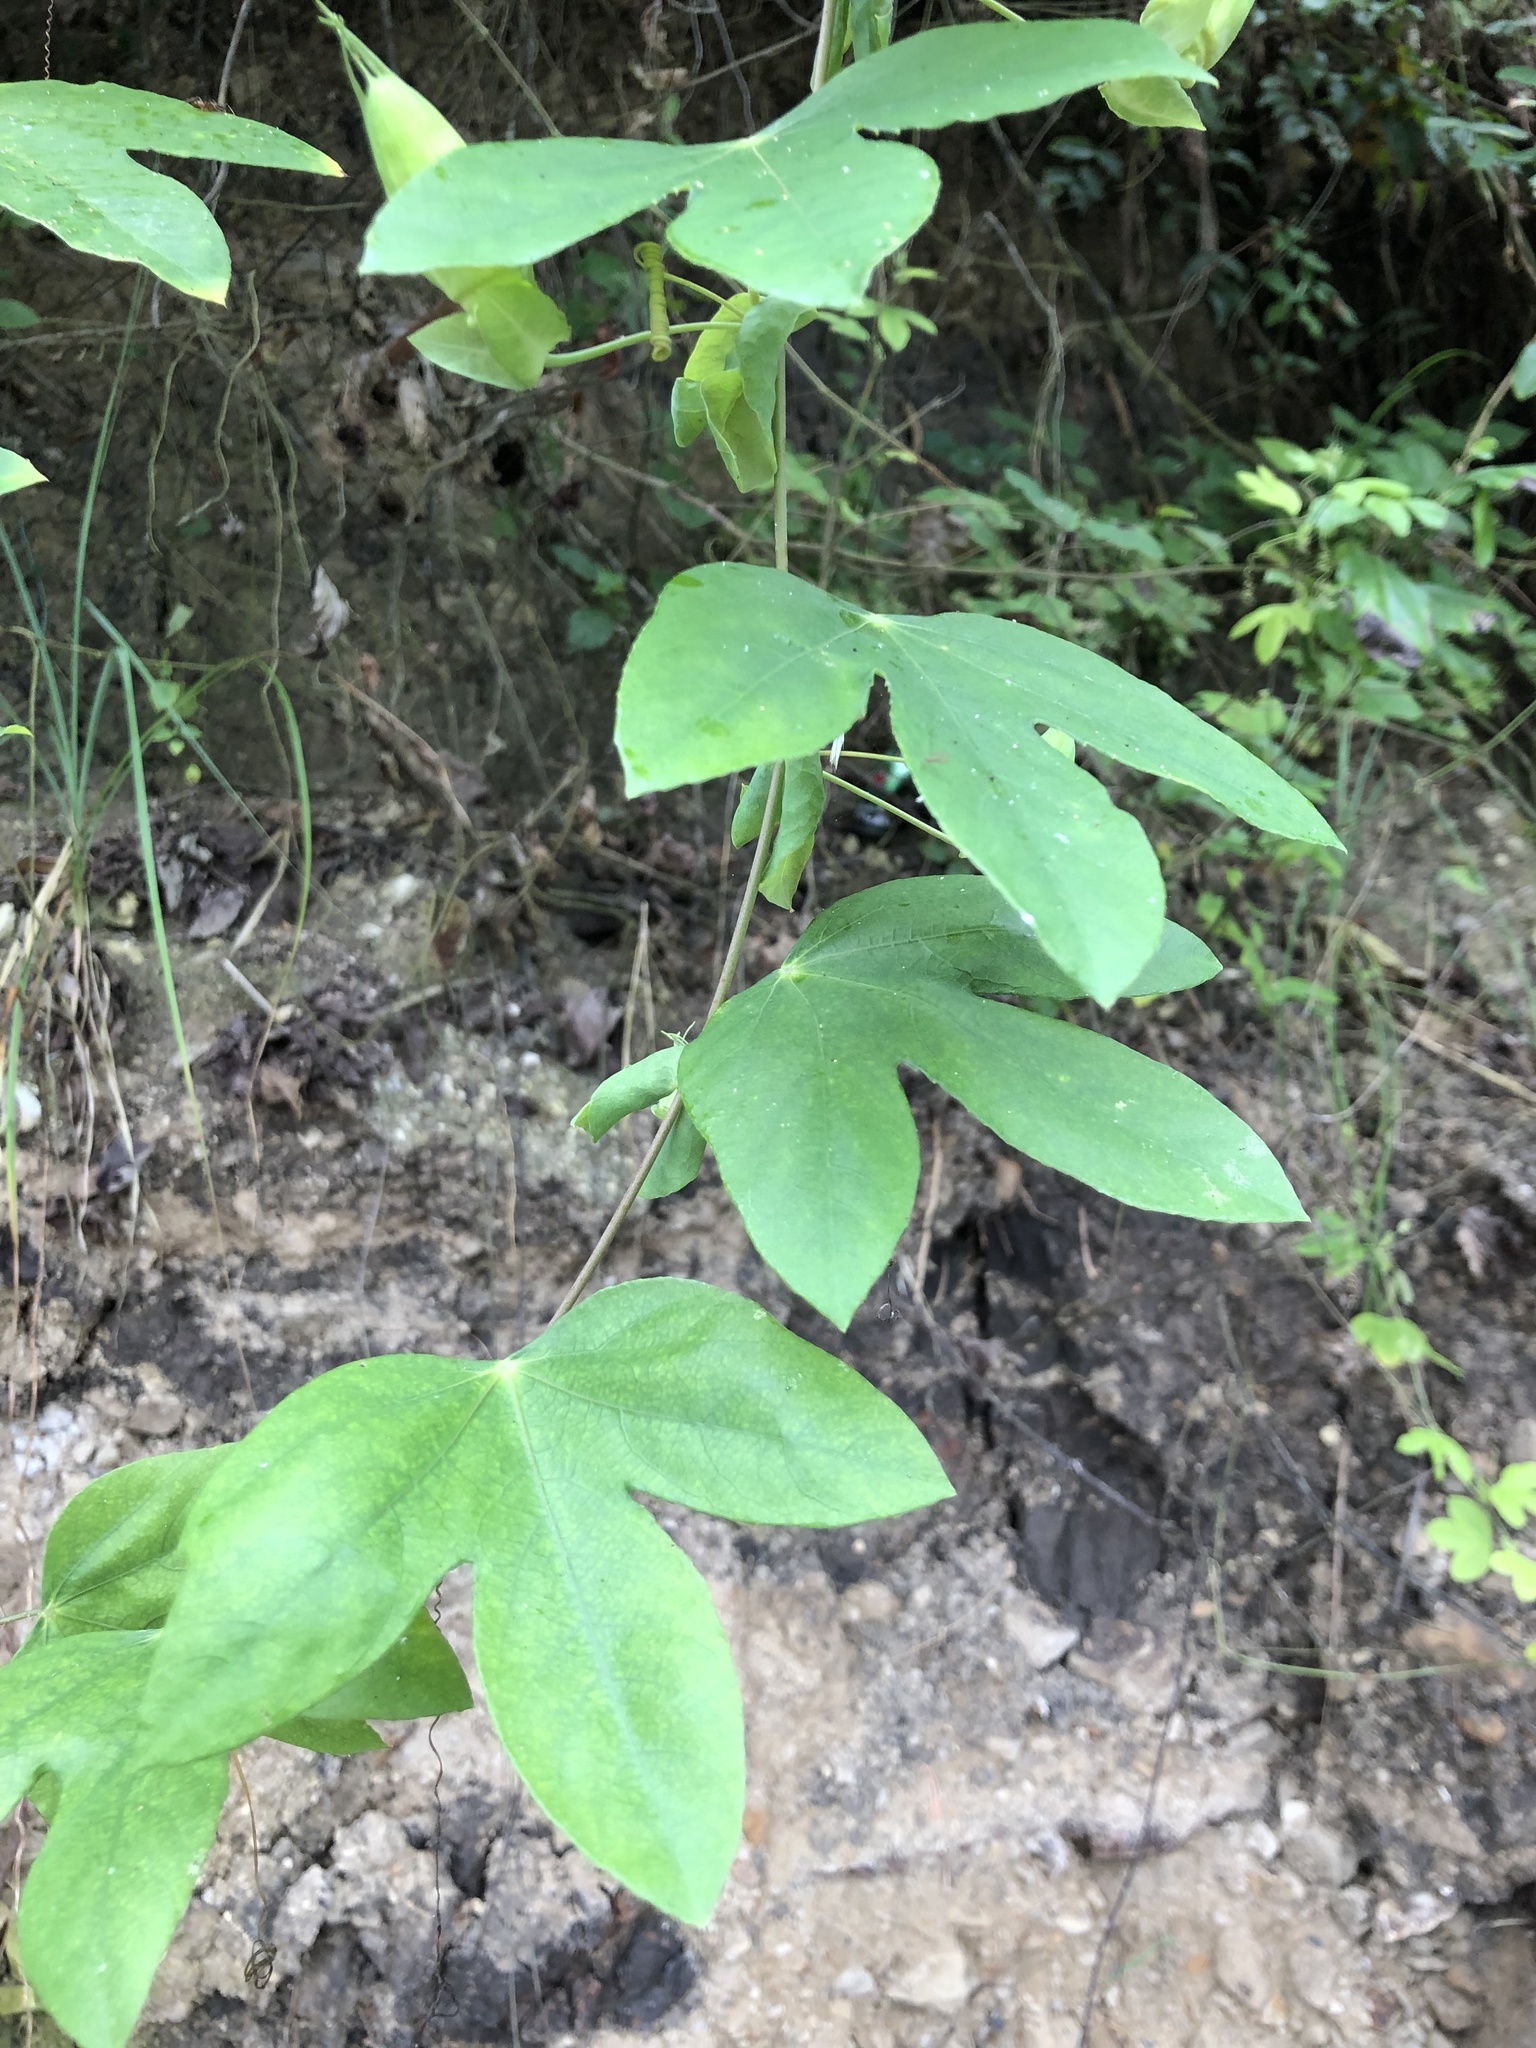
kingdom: Plantae
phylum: Tracheophyta
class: Magnoliopsida
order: Malpighiales
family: Passifloraceae
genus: Passiflora
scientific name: Passiflora sprucei
